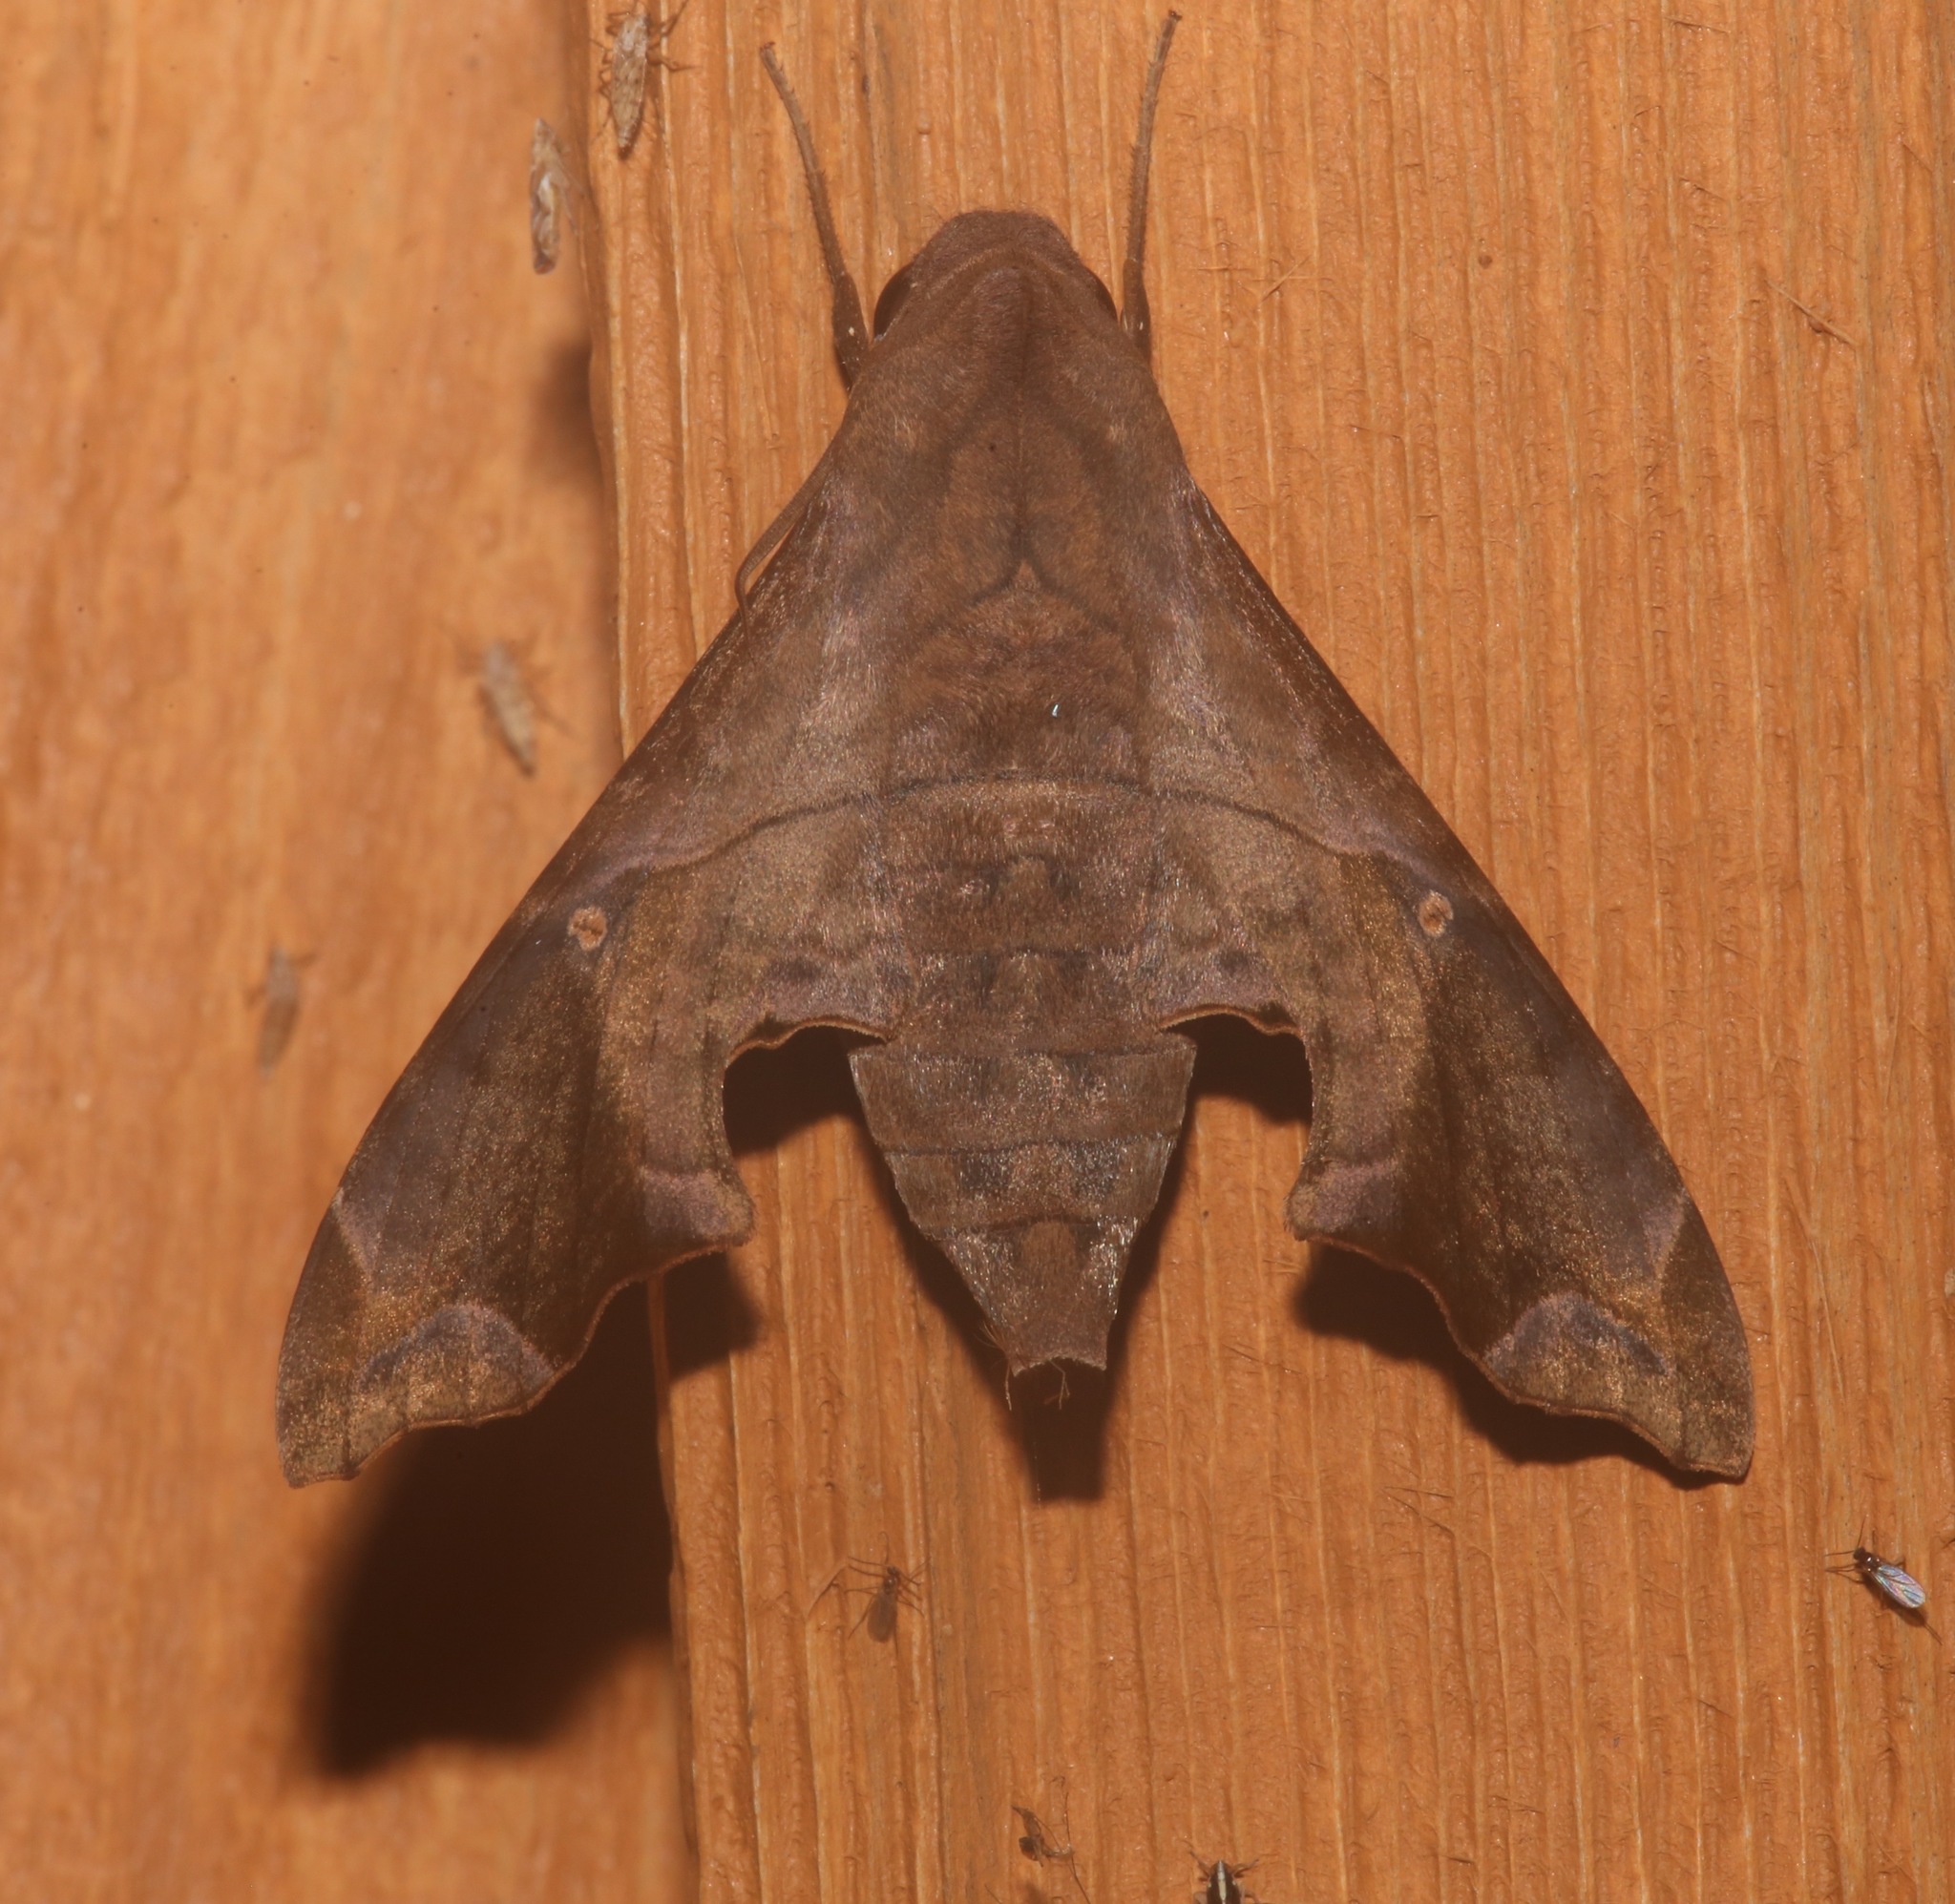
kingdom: Animalia
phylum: Arthropoda
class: Insecta
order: Lepidoptera
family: Sphingidae
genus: Enyo
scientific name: Enyo lugubris
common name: Mournful sphinx
